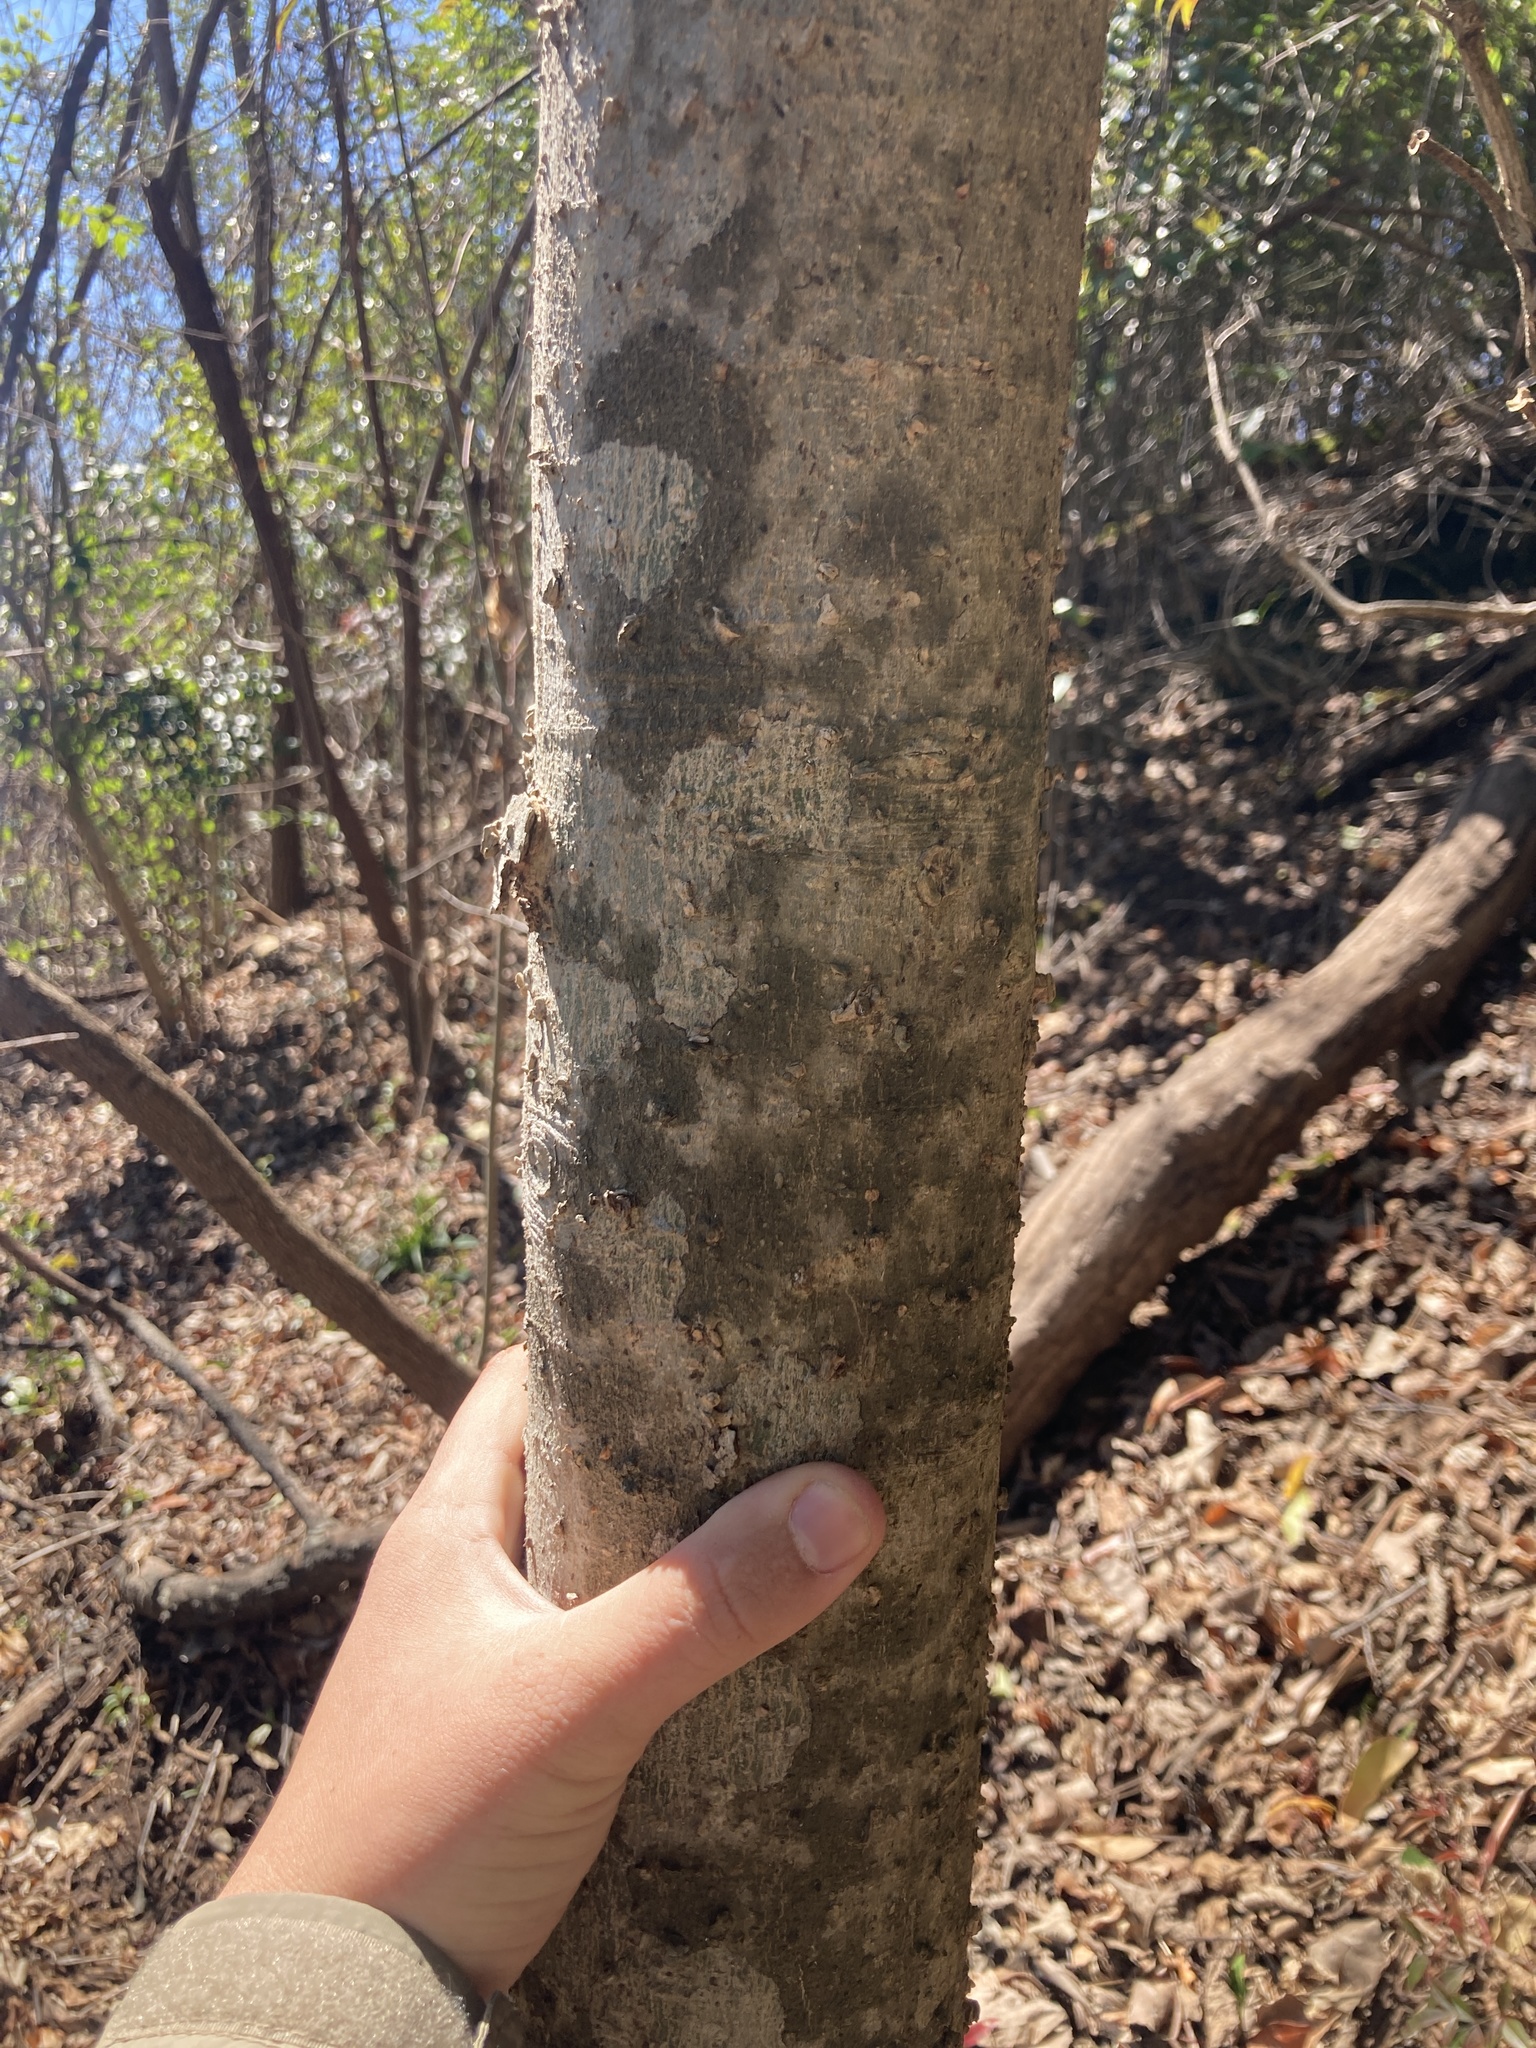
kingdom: Plantae
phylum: Tracheophyta
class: Magnoliopsida
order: Rosales
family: Cannabaceae
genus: Celtis
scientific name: Celtis laevigata
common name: Sugarberry
